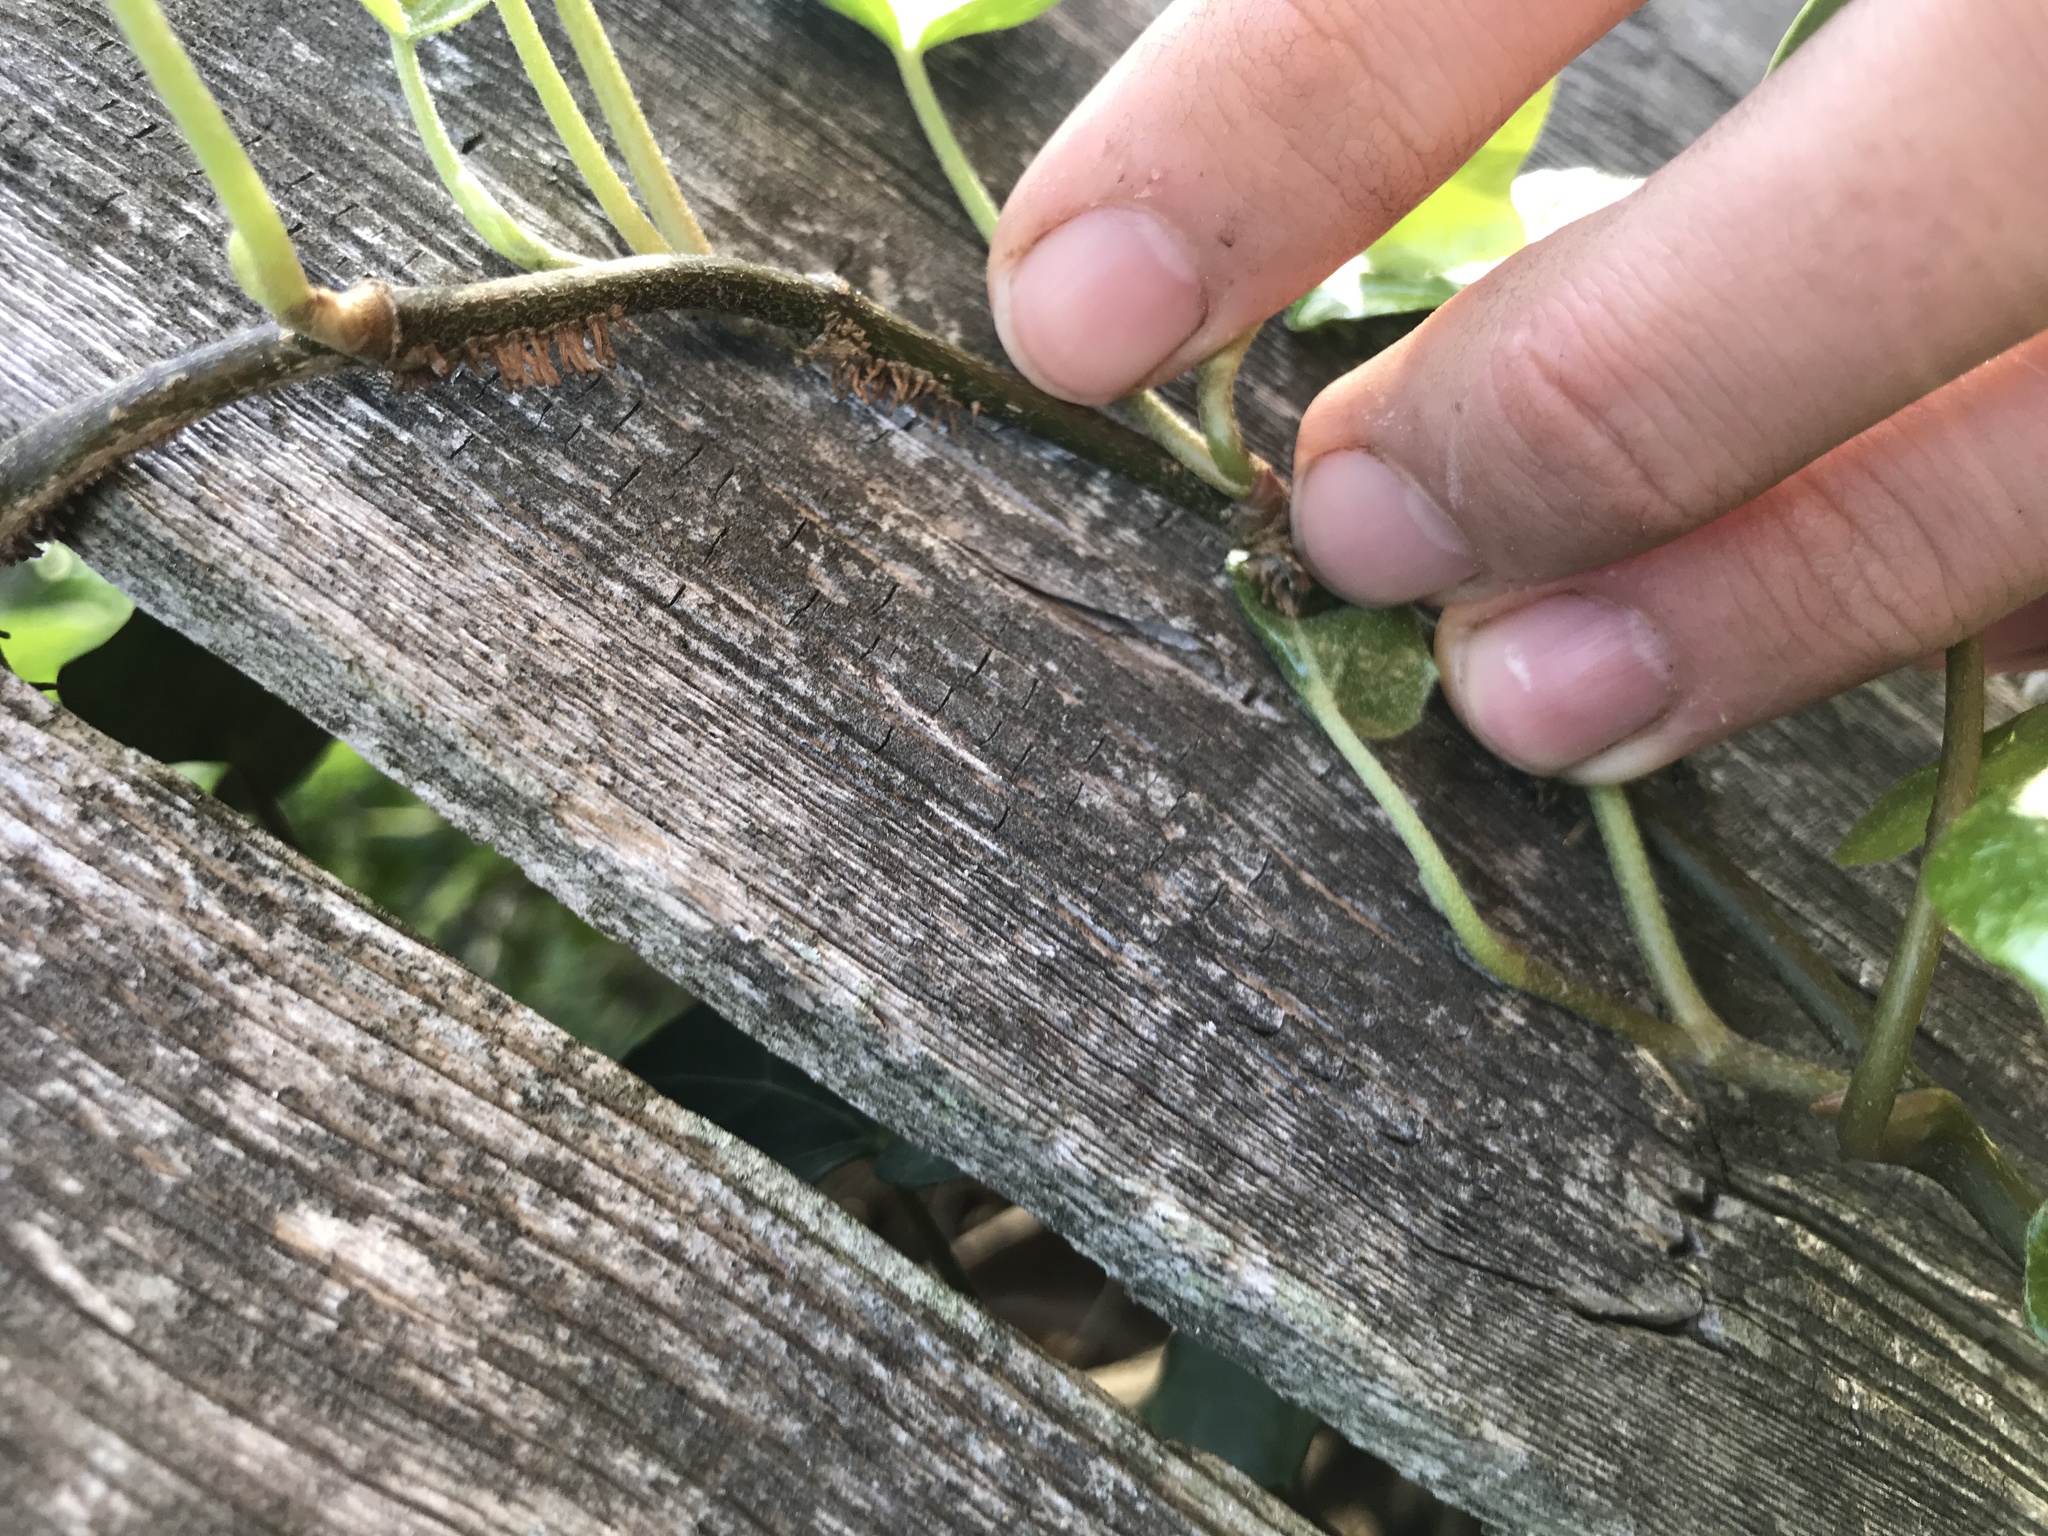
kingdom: Plantae
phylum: Tracheophyta
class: Magnoliopsida
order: Apiales
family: Araliaceae
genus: Hedera
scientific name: Hedera helix
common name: Ivy
